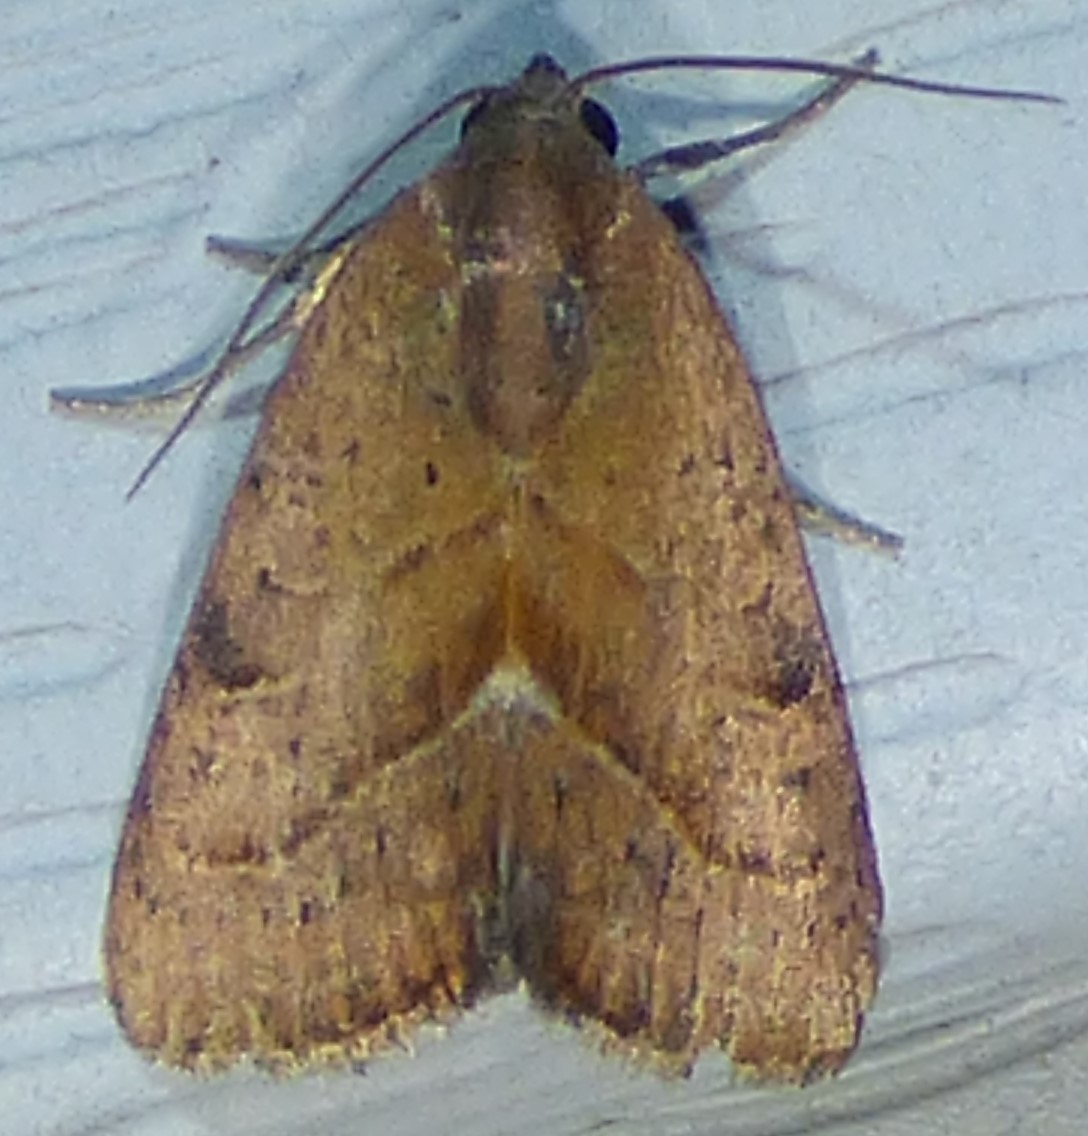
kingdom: Animalia
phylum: Arthropoda
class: Insecta
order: Lepidoptera
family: Noctuidae
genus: Galgula
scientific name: Galgula partita
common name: Wedgeling
